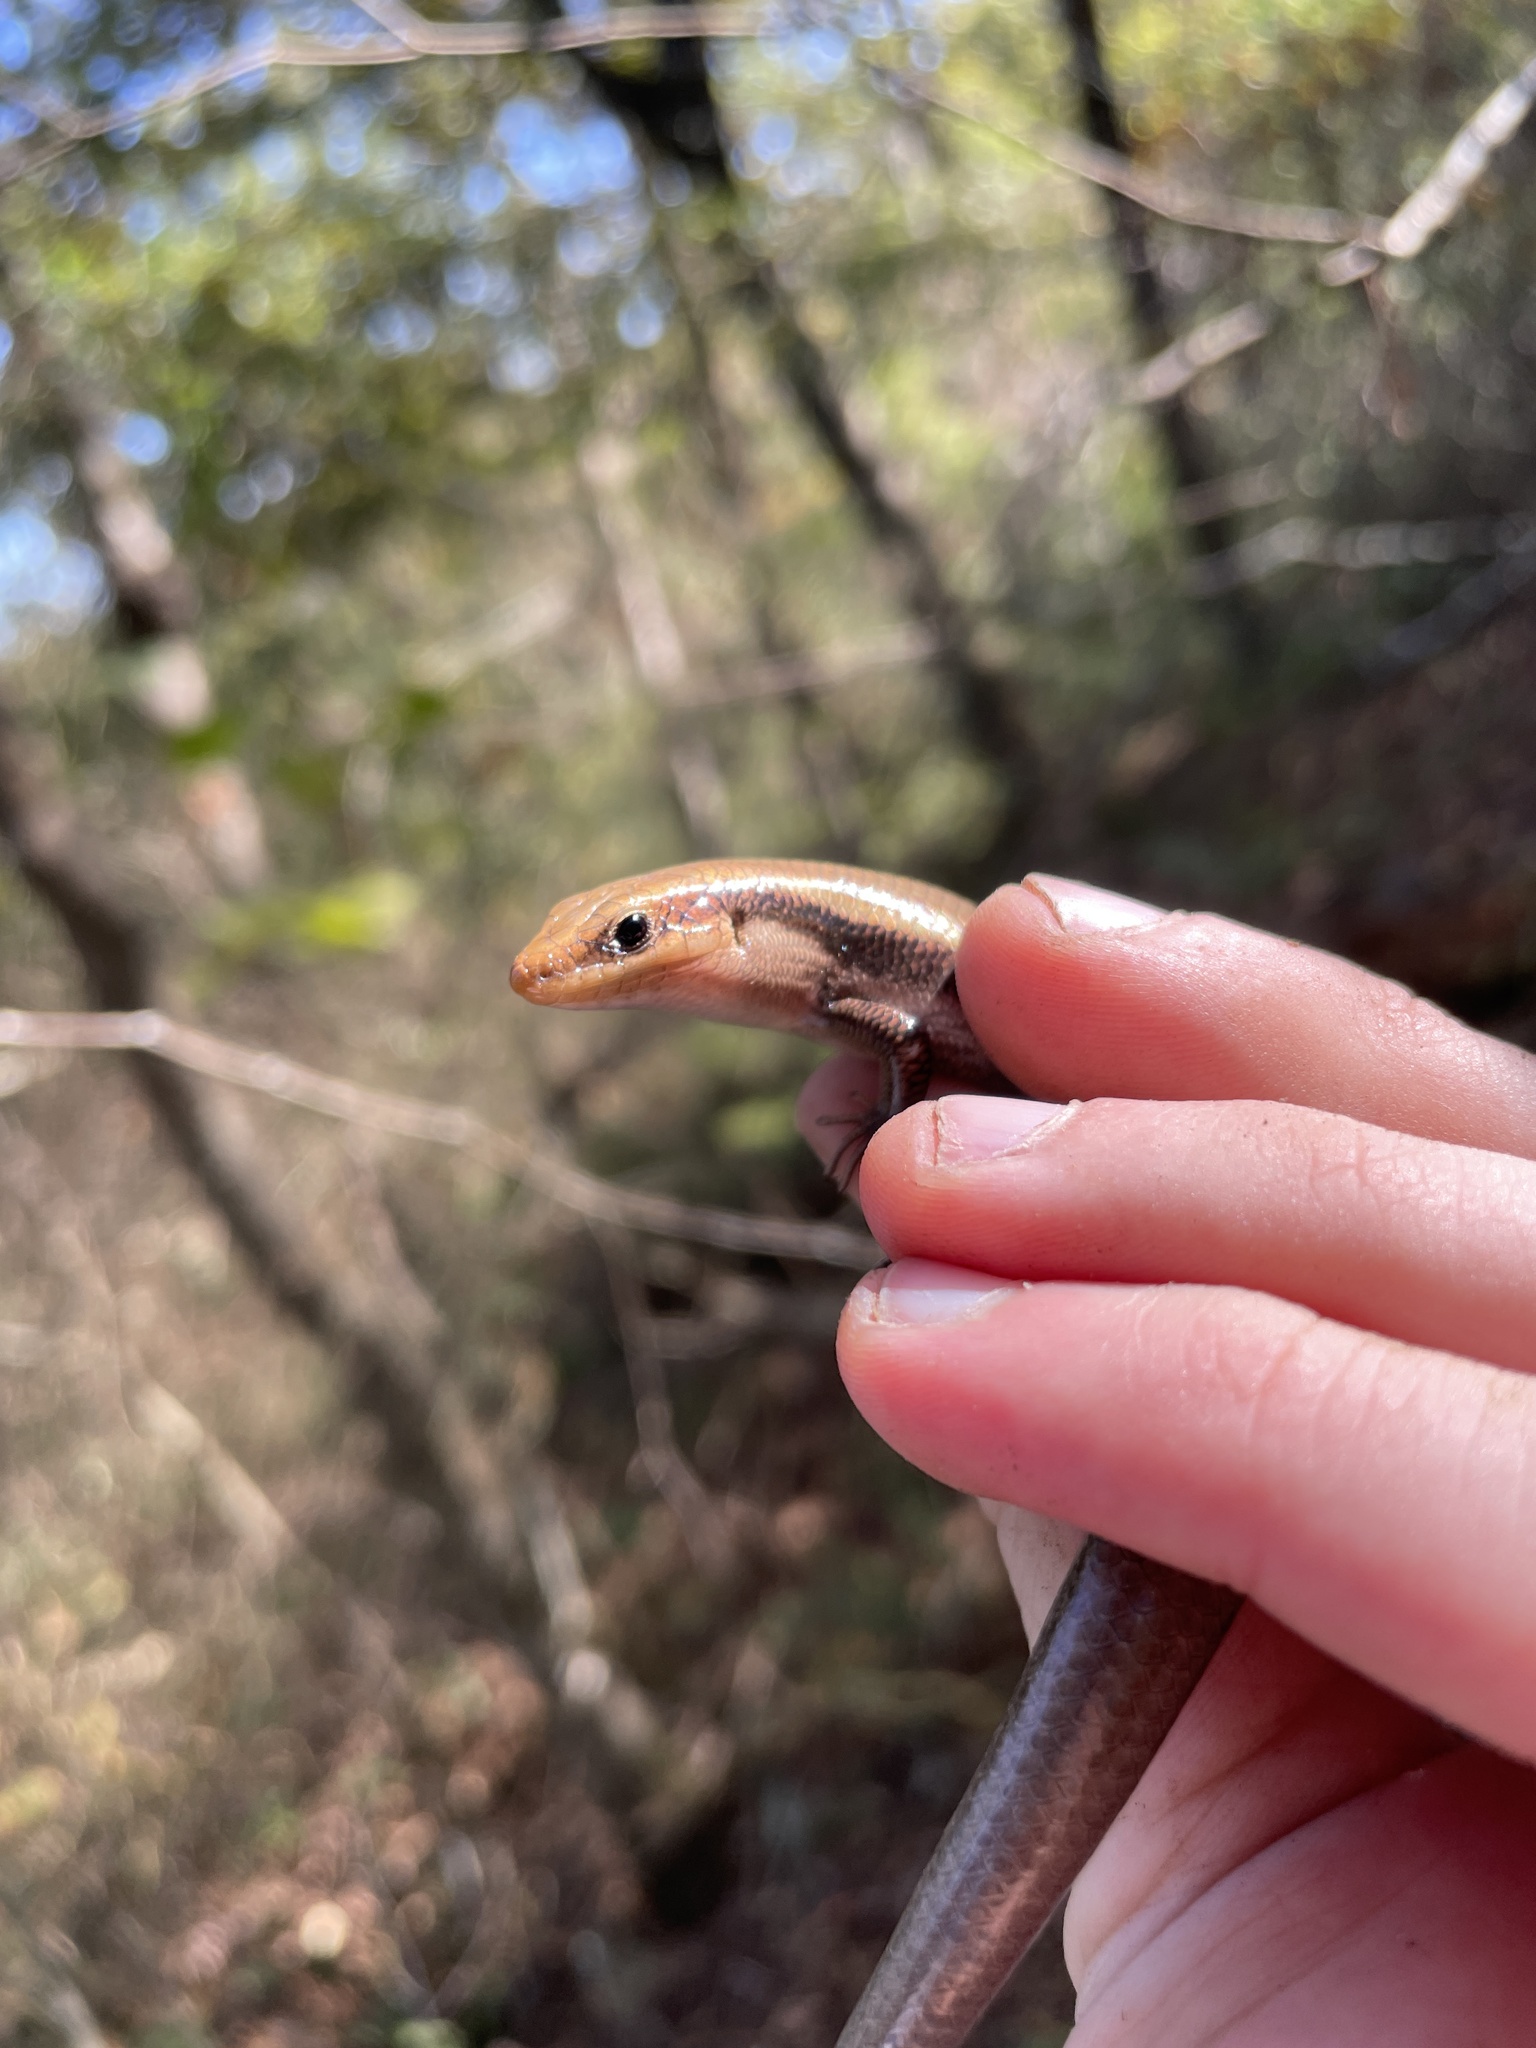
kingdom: Animalia
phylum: Chordata
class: Squamata
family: Scincidae
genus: Plestiodon
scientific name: Plestiodon fasciatus
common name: Five-lined skink
